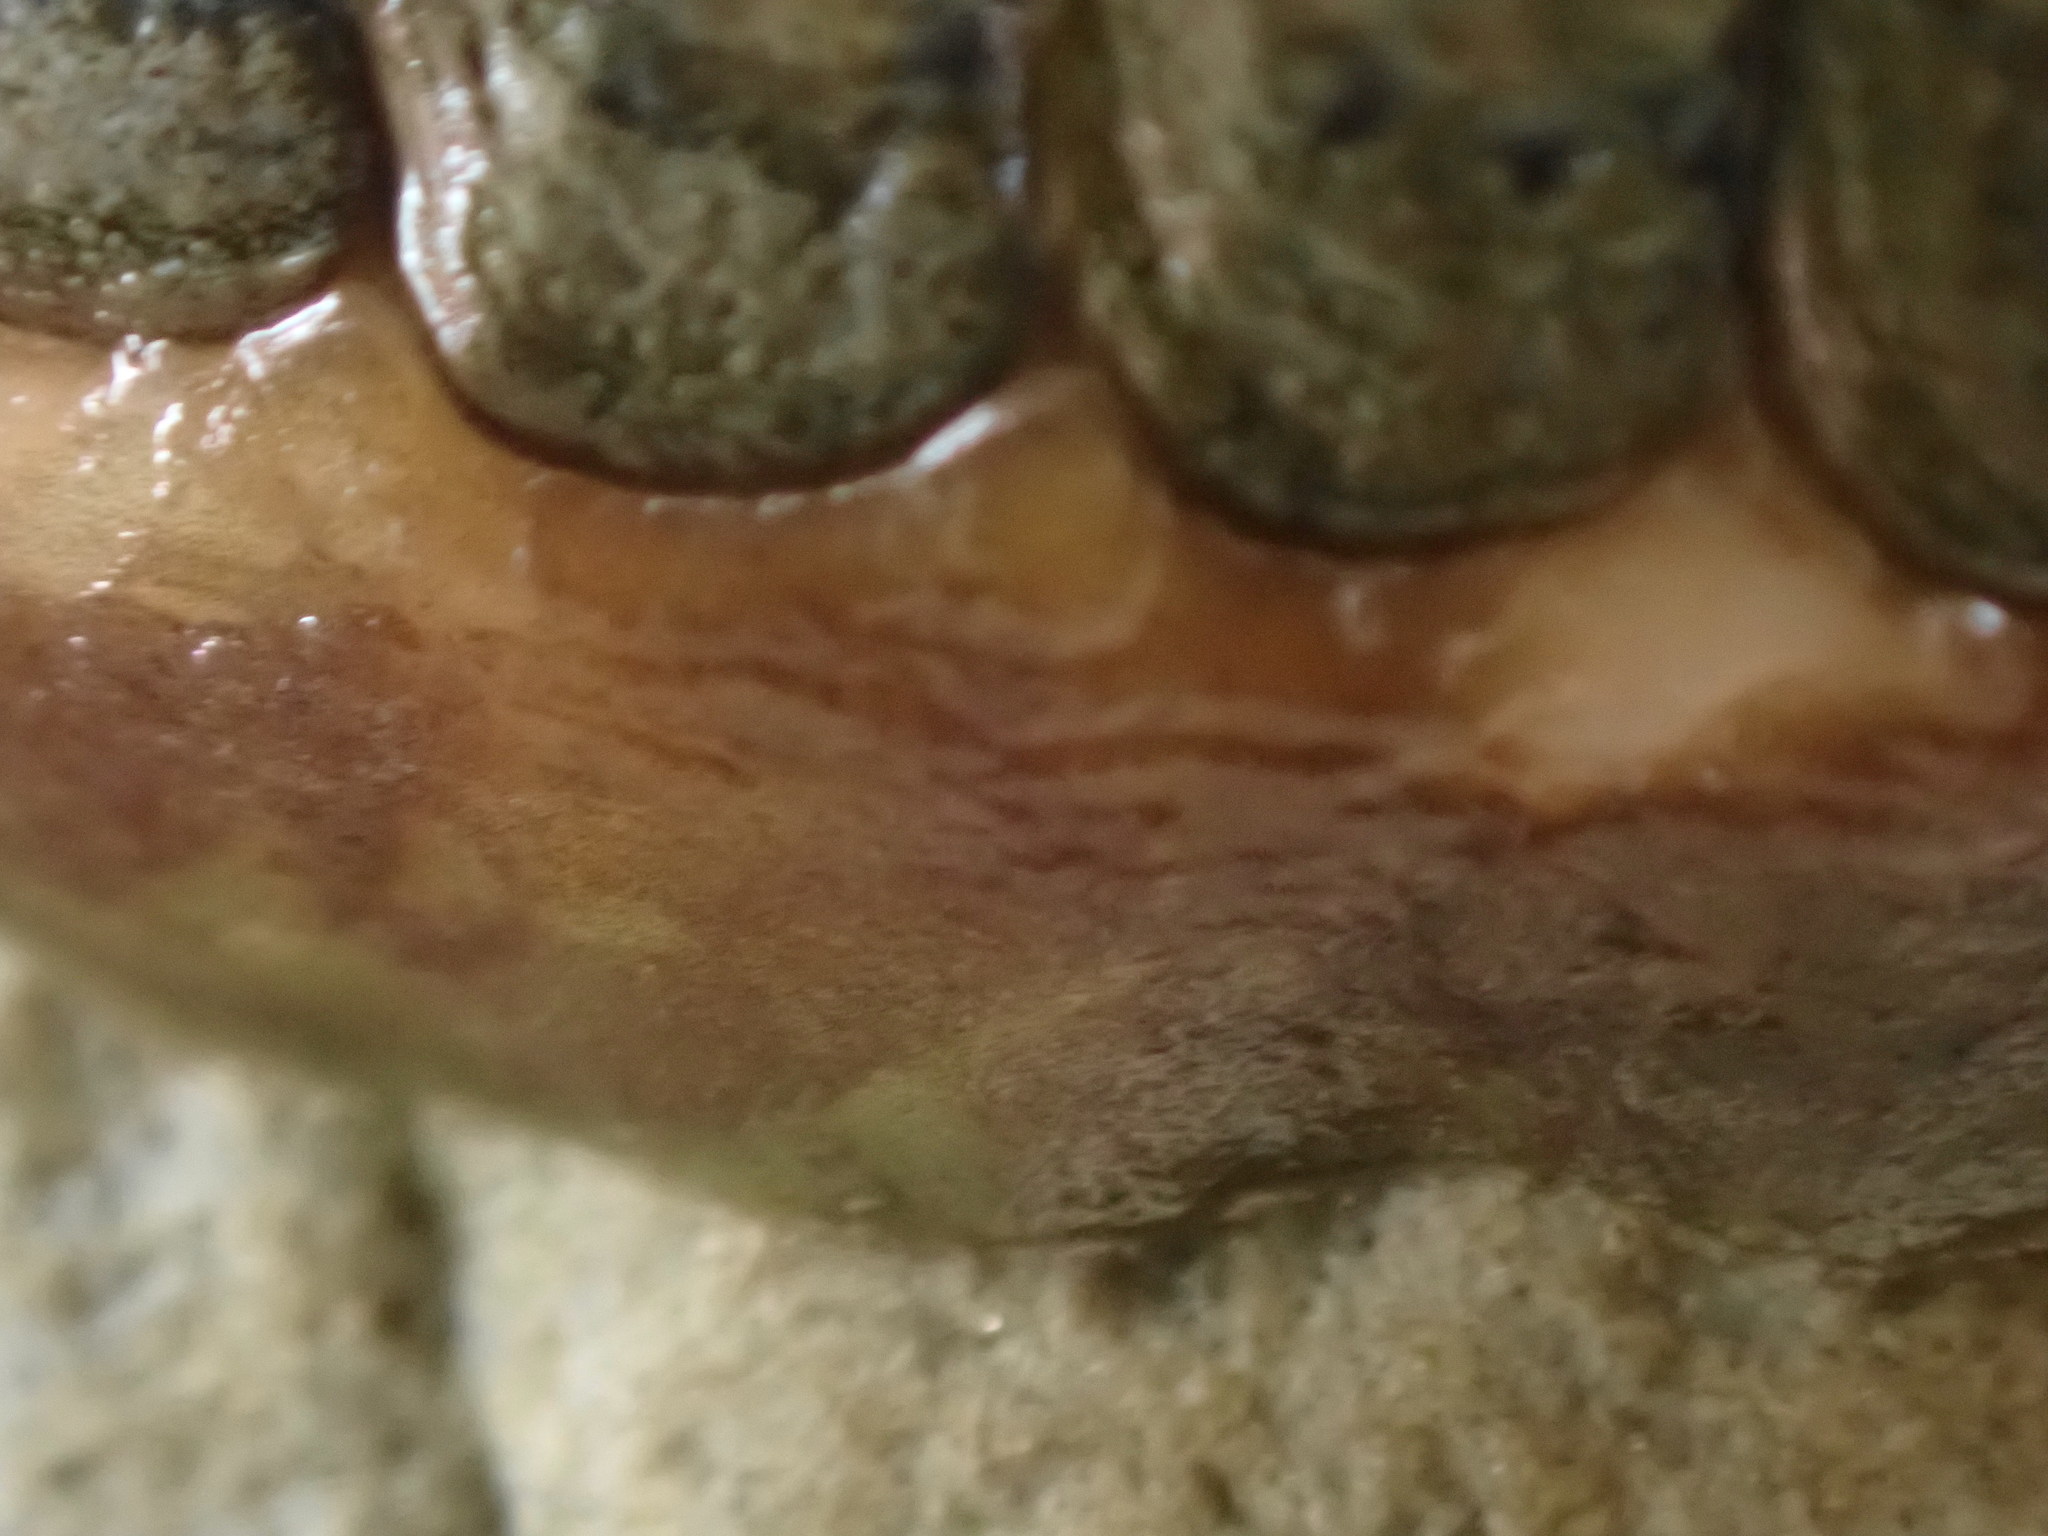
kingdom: Animalia
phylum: Mollusca
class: Polyplacophora
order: Chitonida
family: Tonicellidae
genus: Cyanoplax
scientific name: Cyanoplax hartwegii
